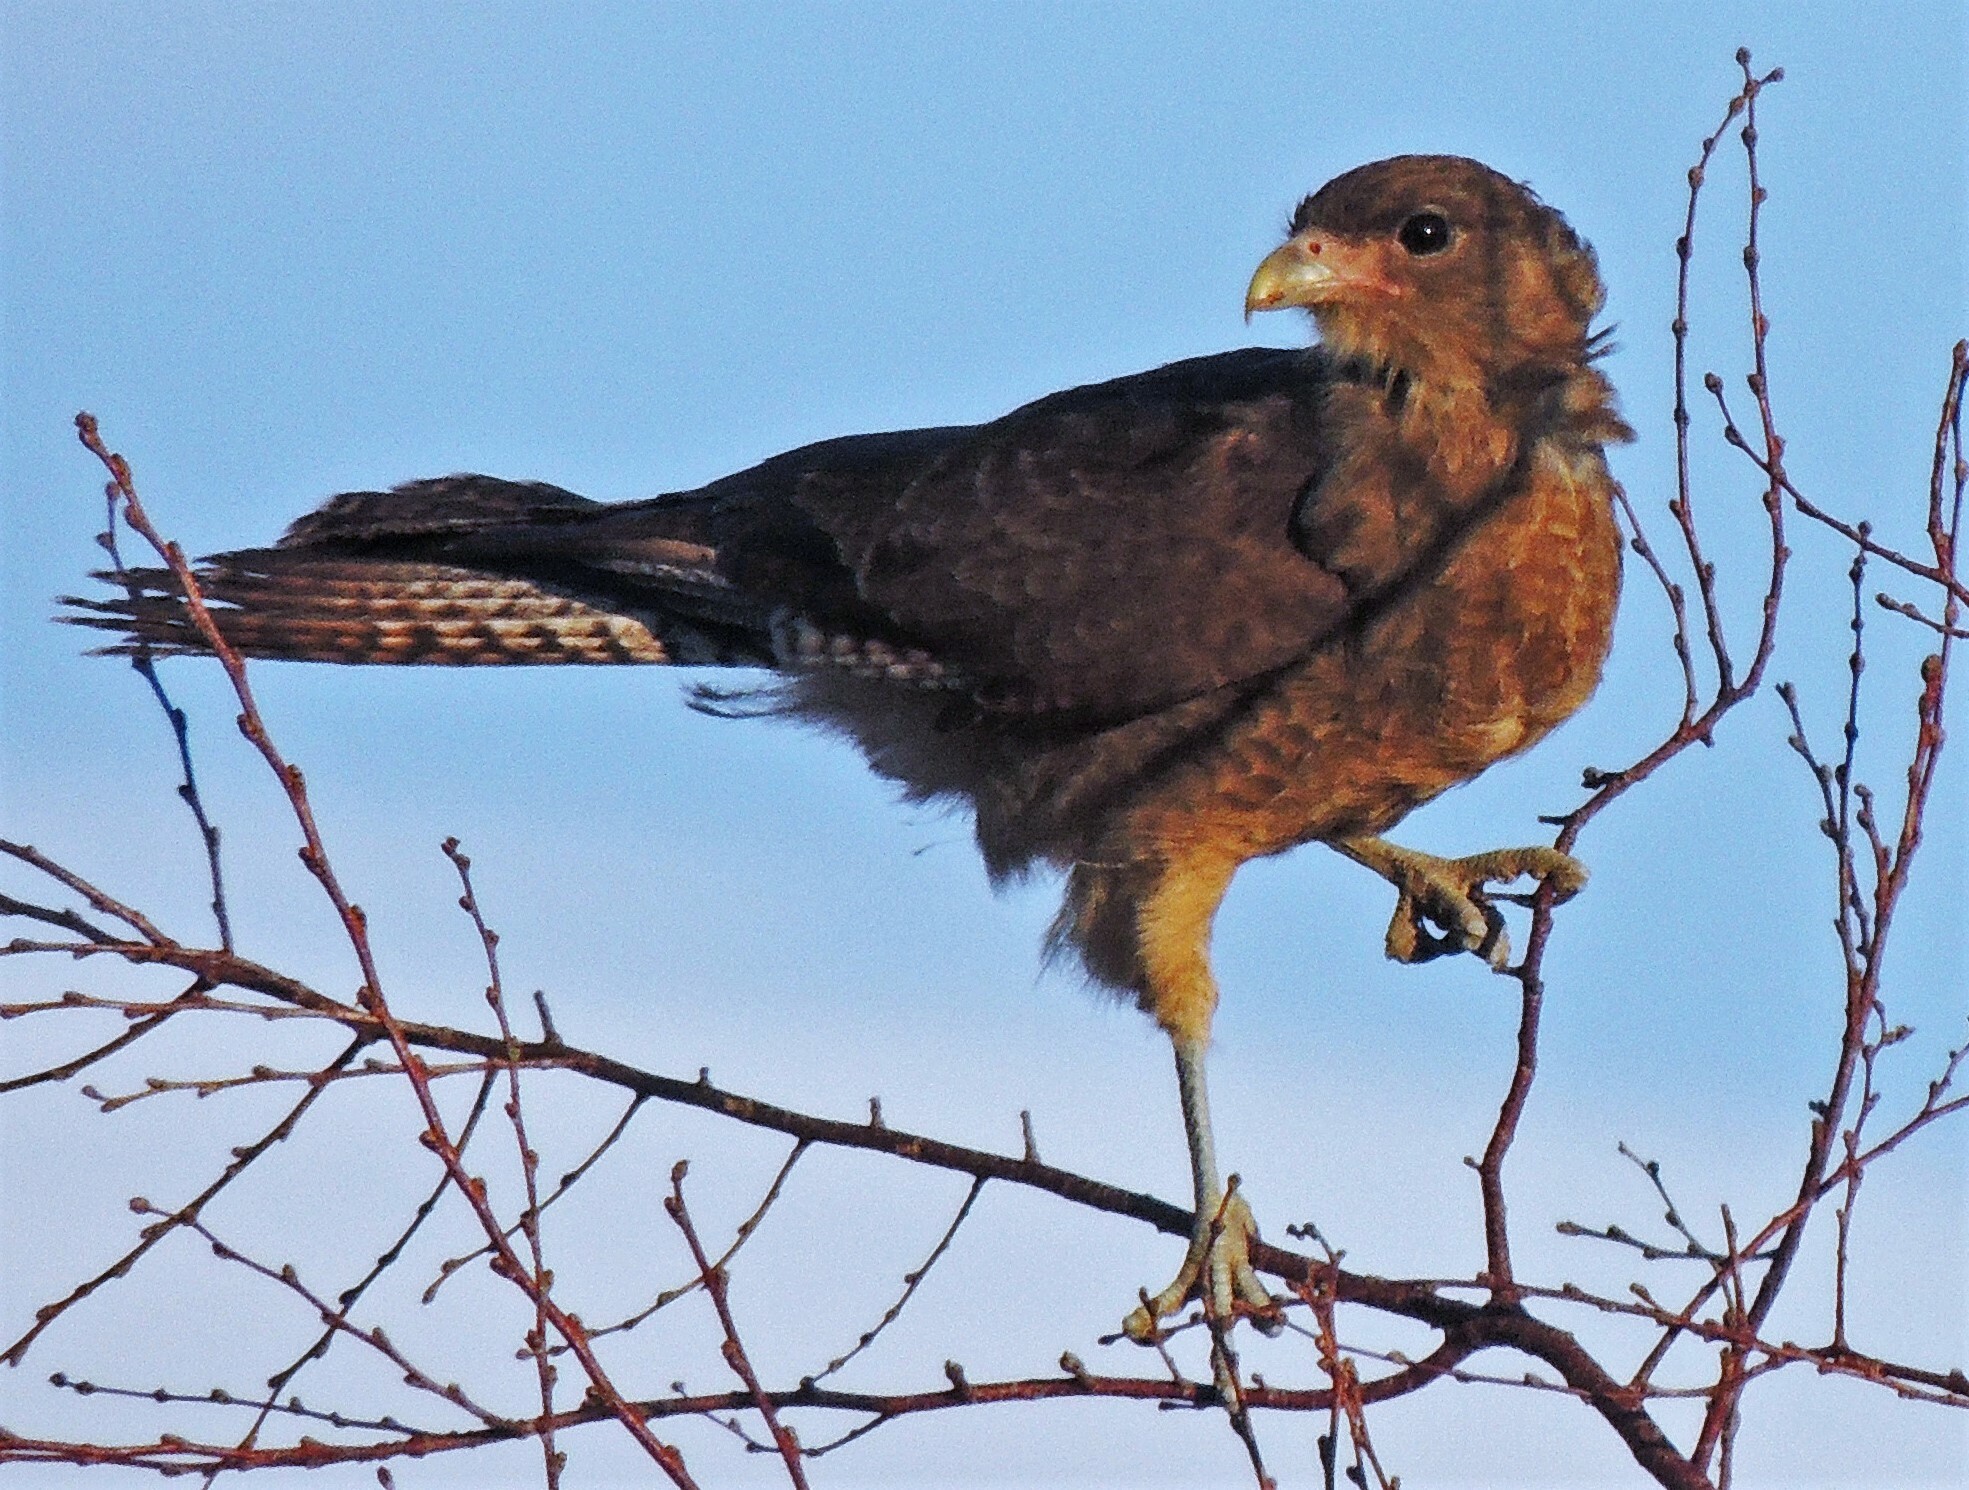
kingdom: Animalia
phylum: Chordata
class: Aves
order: Falconiformes
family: Falconidae
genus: Daptrius
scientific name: Daptrius
